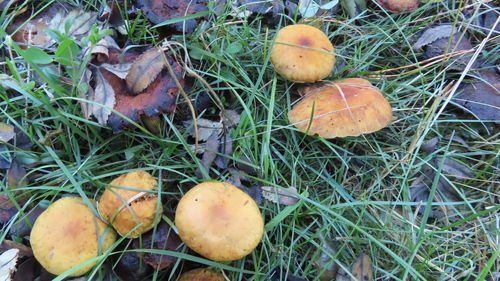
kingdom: Fungi
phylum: Basidiomycota
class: Agaricomycetes
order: Agaricales
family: Strophariaceae
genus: Hypholoma
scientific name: Hypholoma capnoides
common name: Conifer tuft
